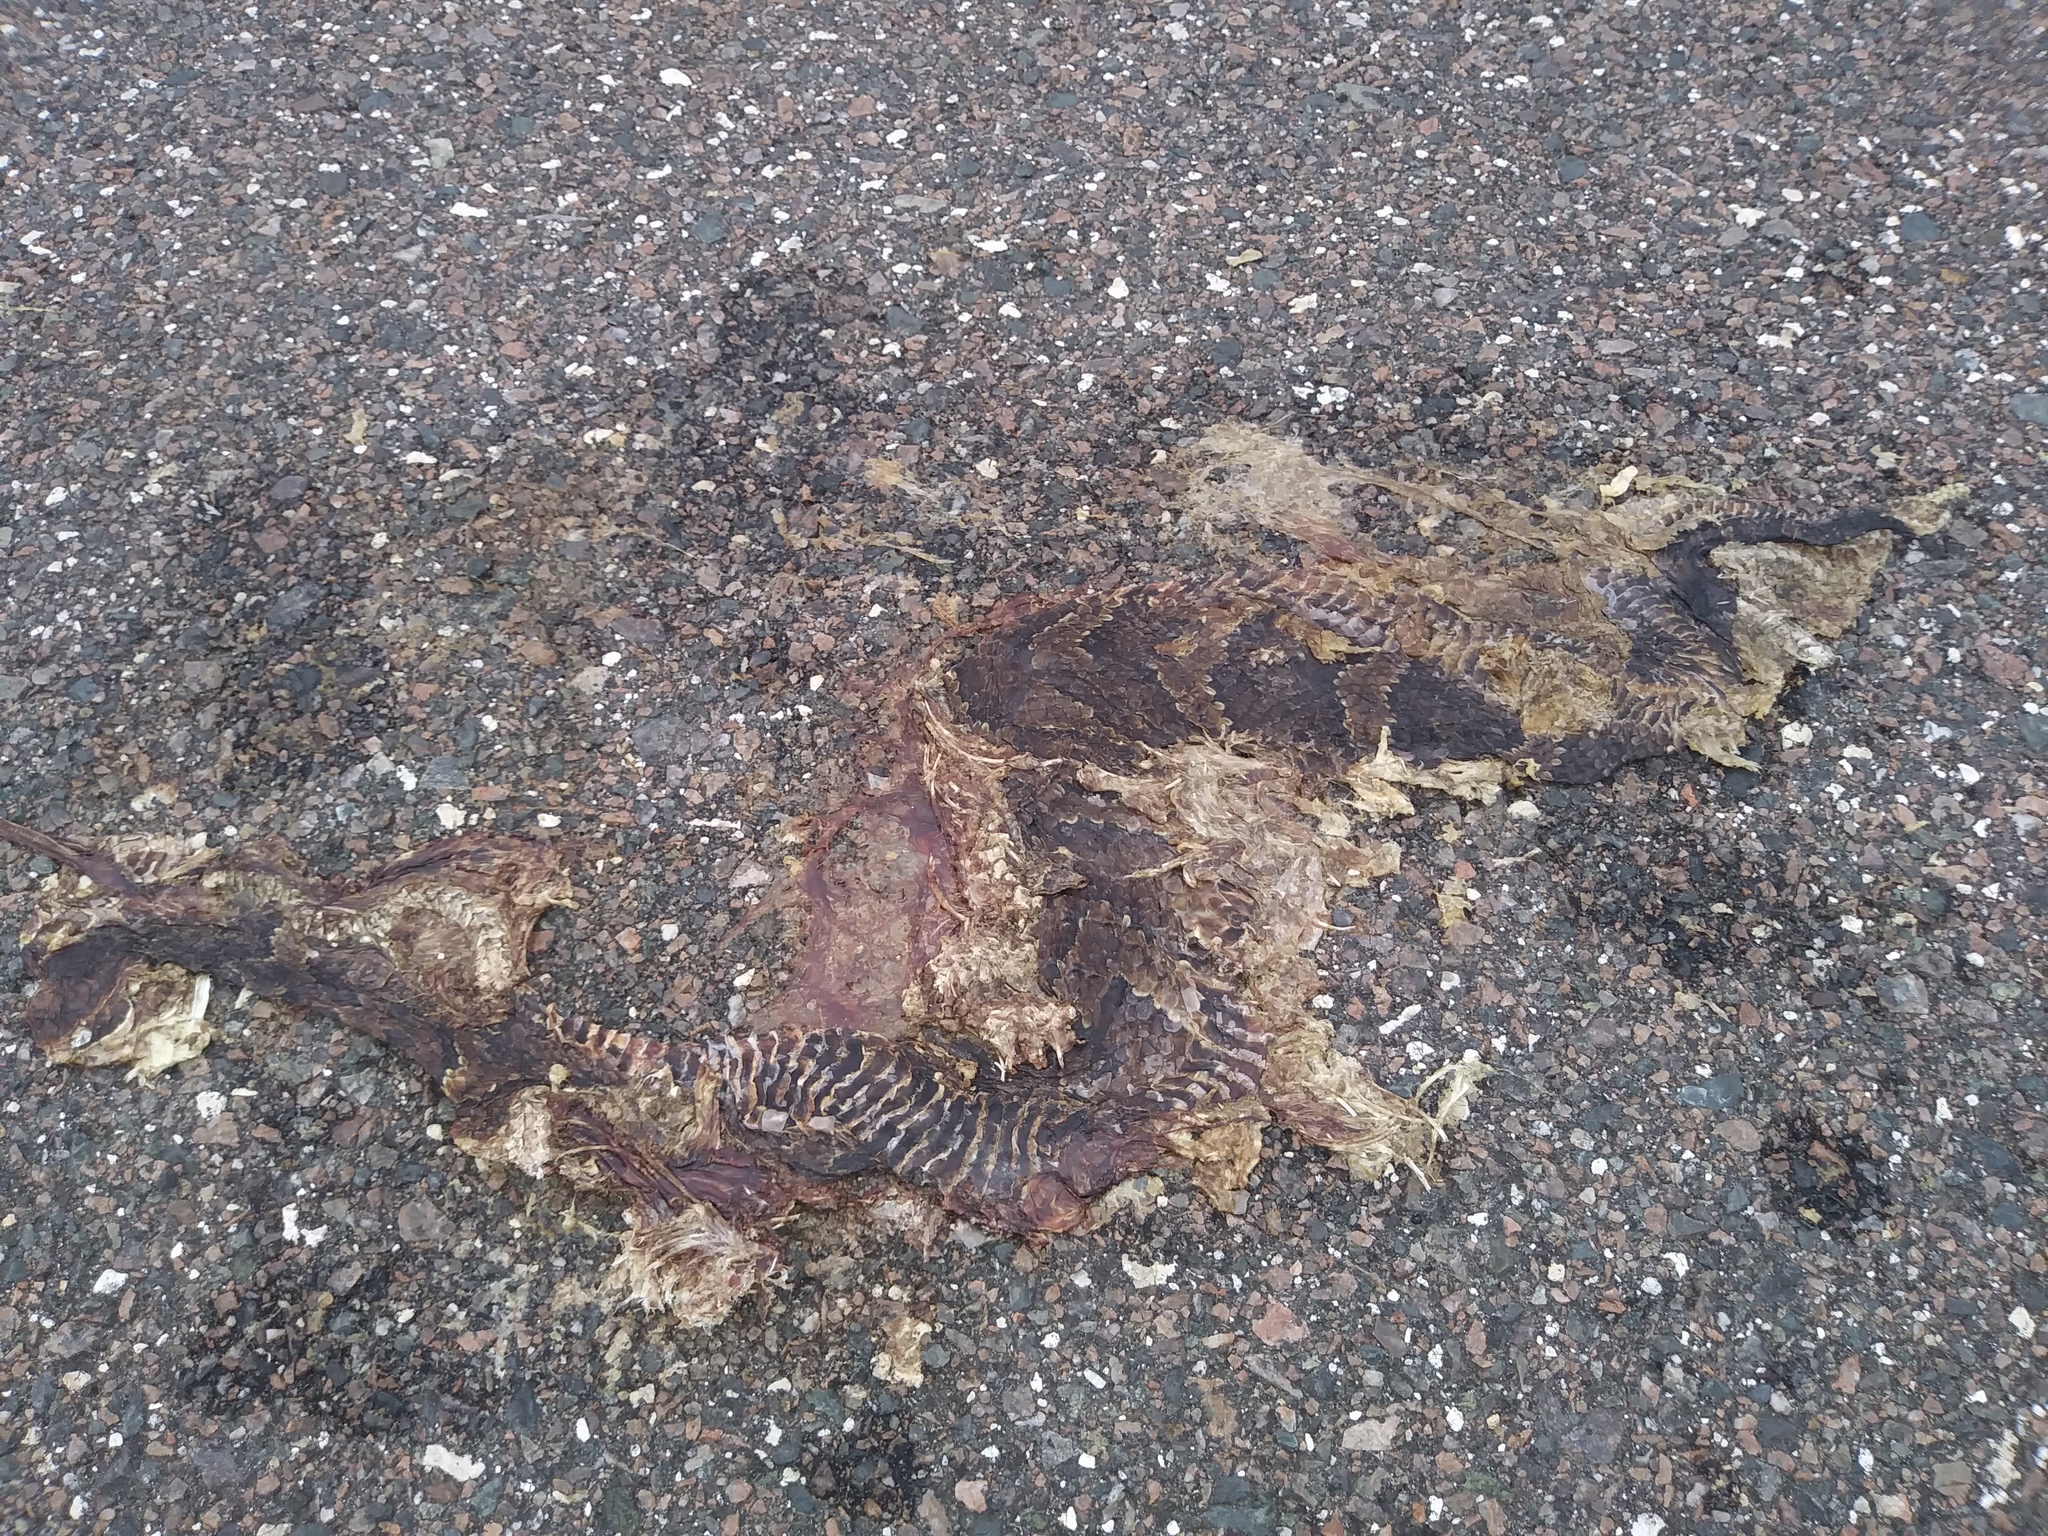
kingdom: Animalia
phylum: Chordata
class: Squamata
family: Viperidae
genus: Agkistrodon
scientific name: Agkistrodon conanti
